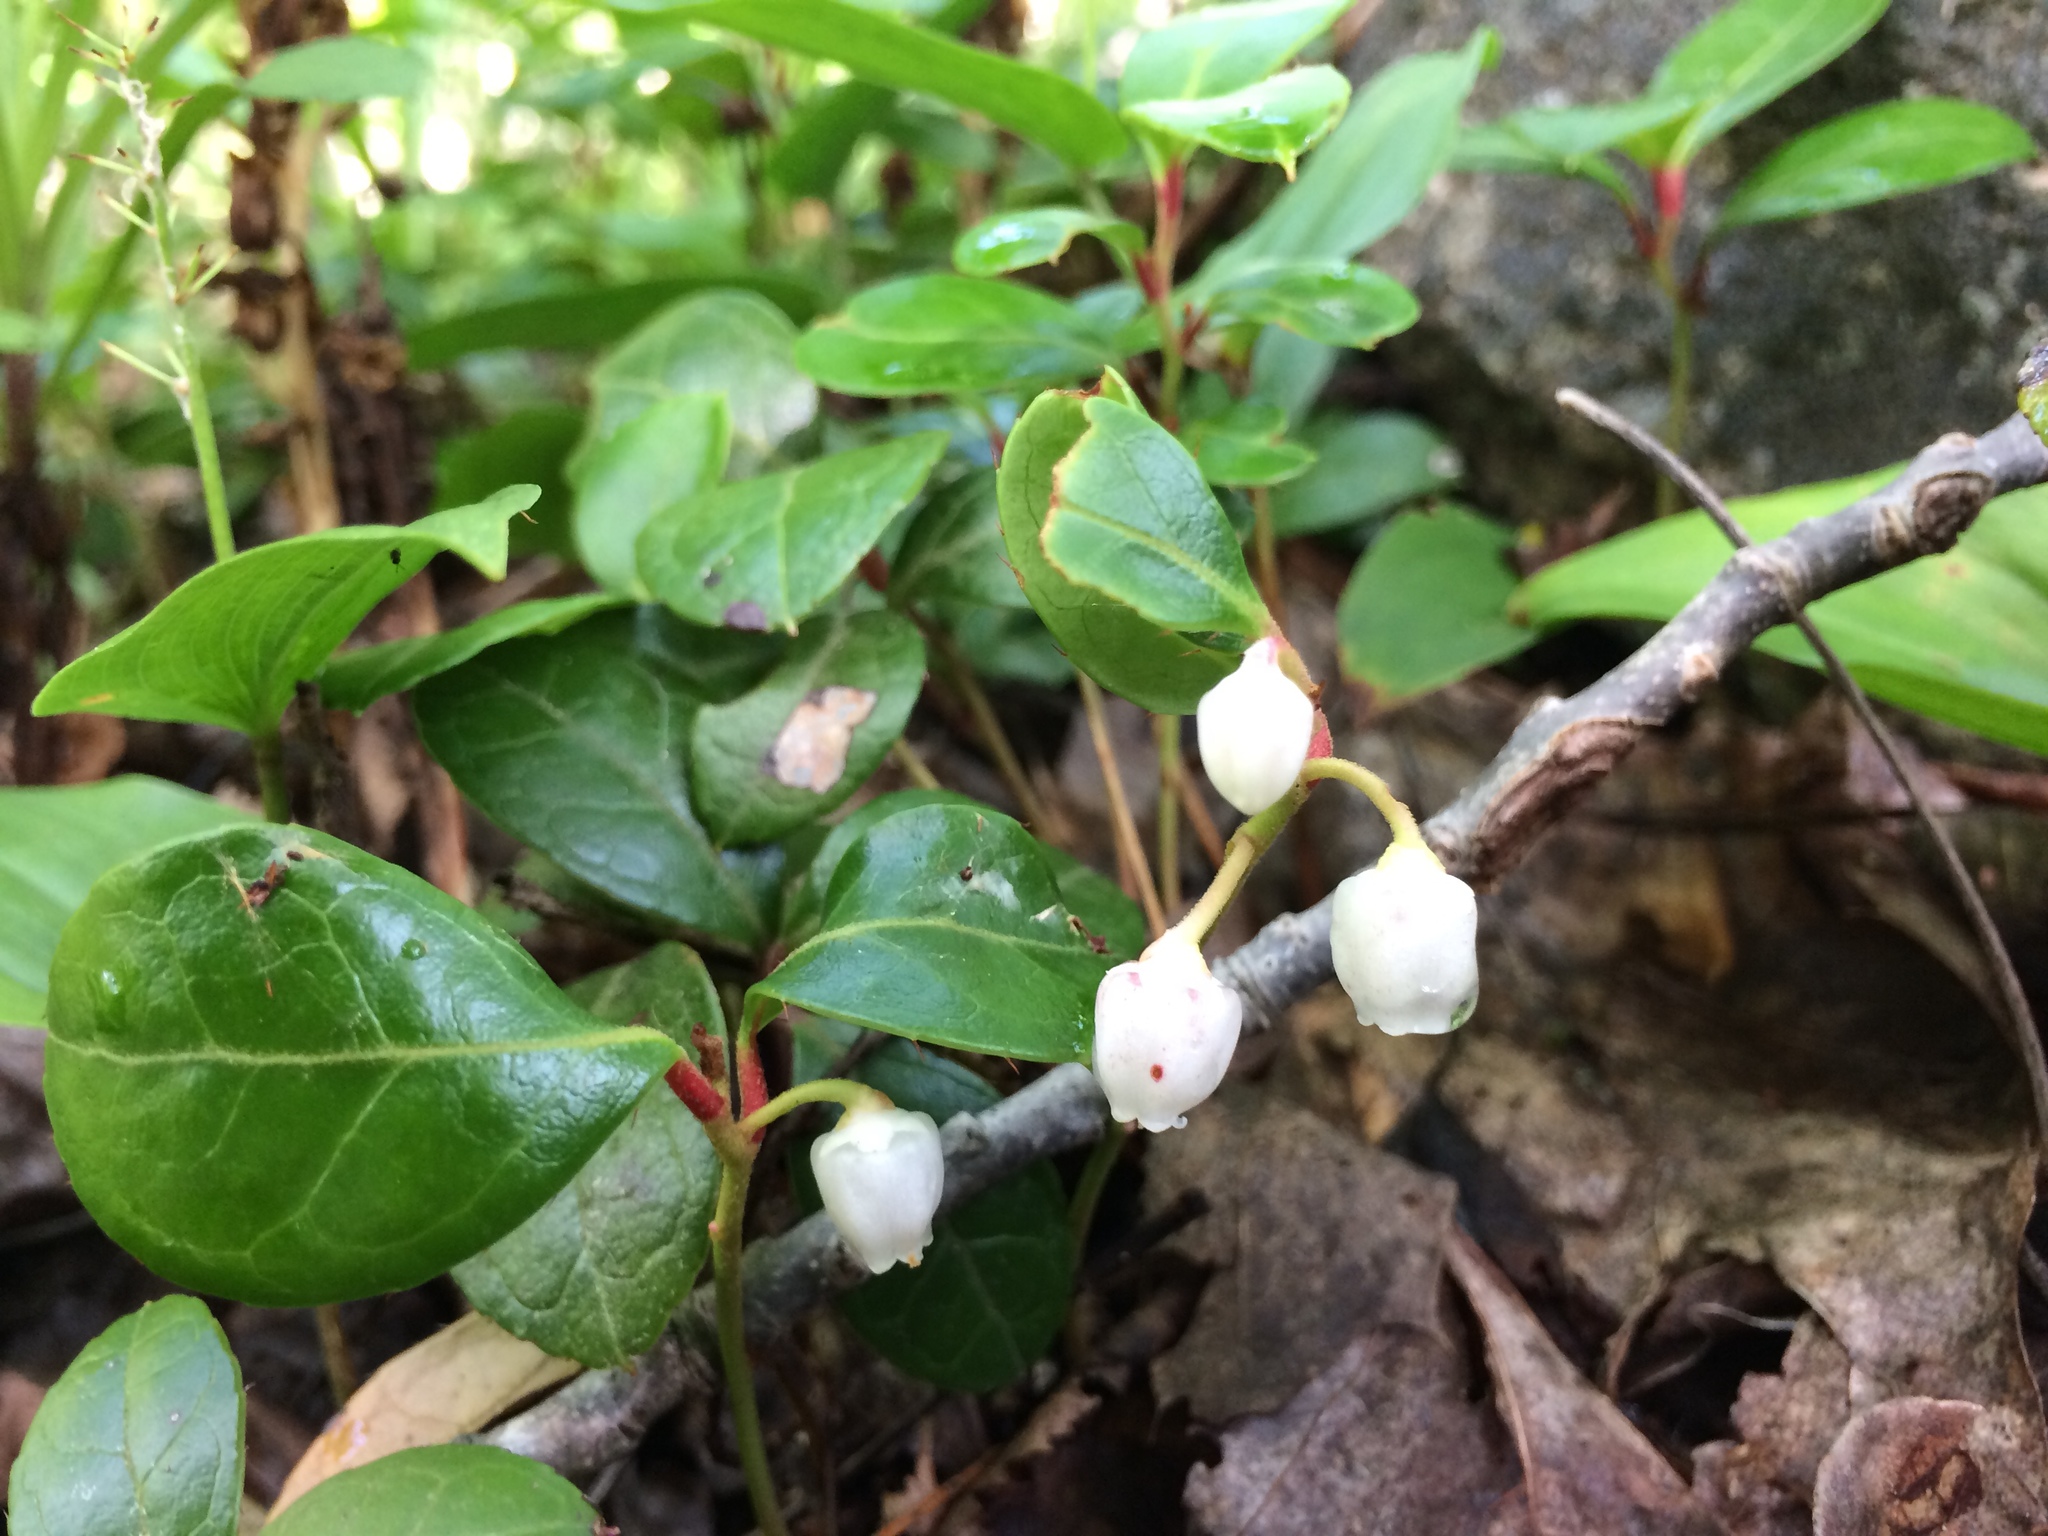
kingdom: Plantae
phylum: Tracheophyta
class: Magnoliopsida
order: Ericales
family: Ericaceae
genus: Gaultheria
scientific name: Gaultheria procumbens
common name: Checkerberry
